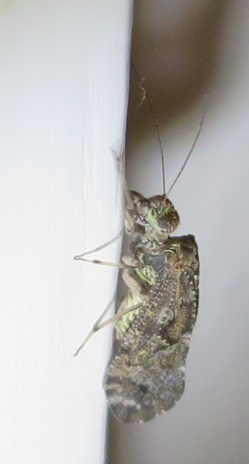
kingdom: Animalia
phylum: Arthropoda
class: Insecta
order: Psocodea
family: Myopsocidae
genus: Nimbopsocus
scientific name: Nimbopsocus australis
